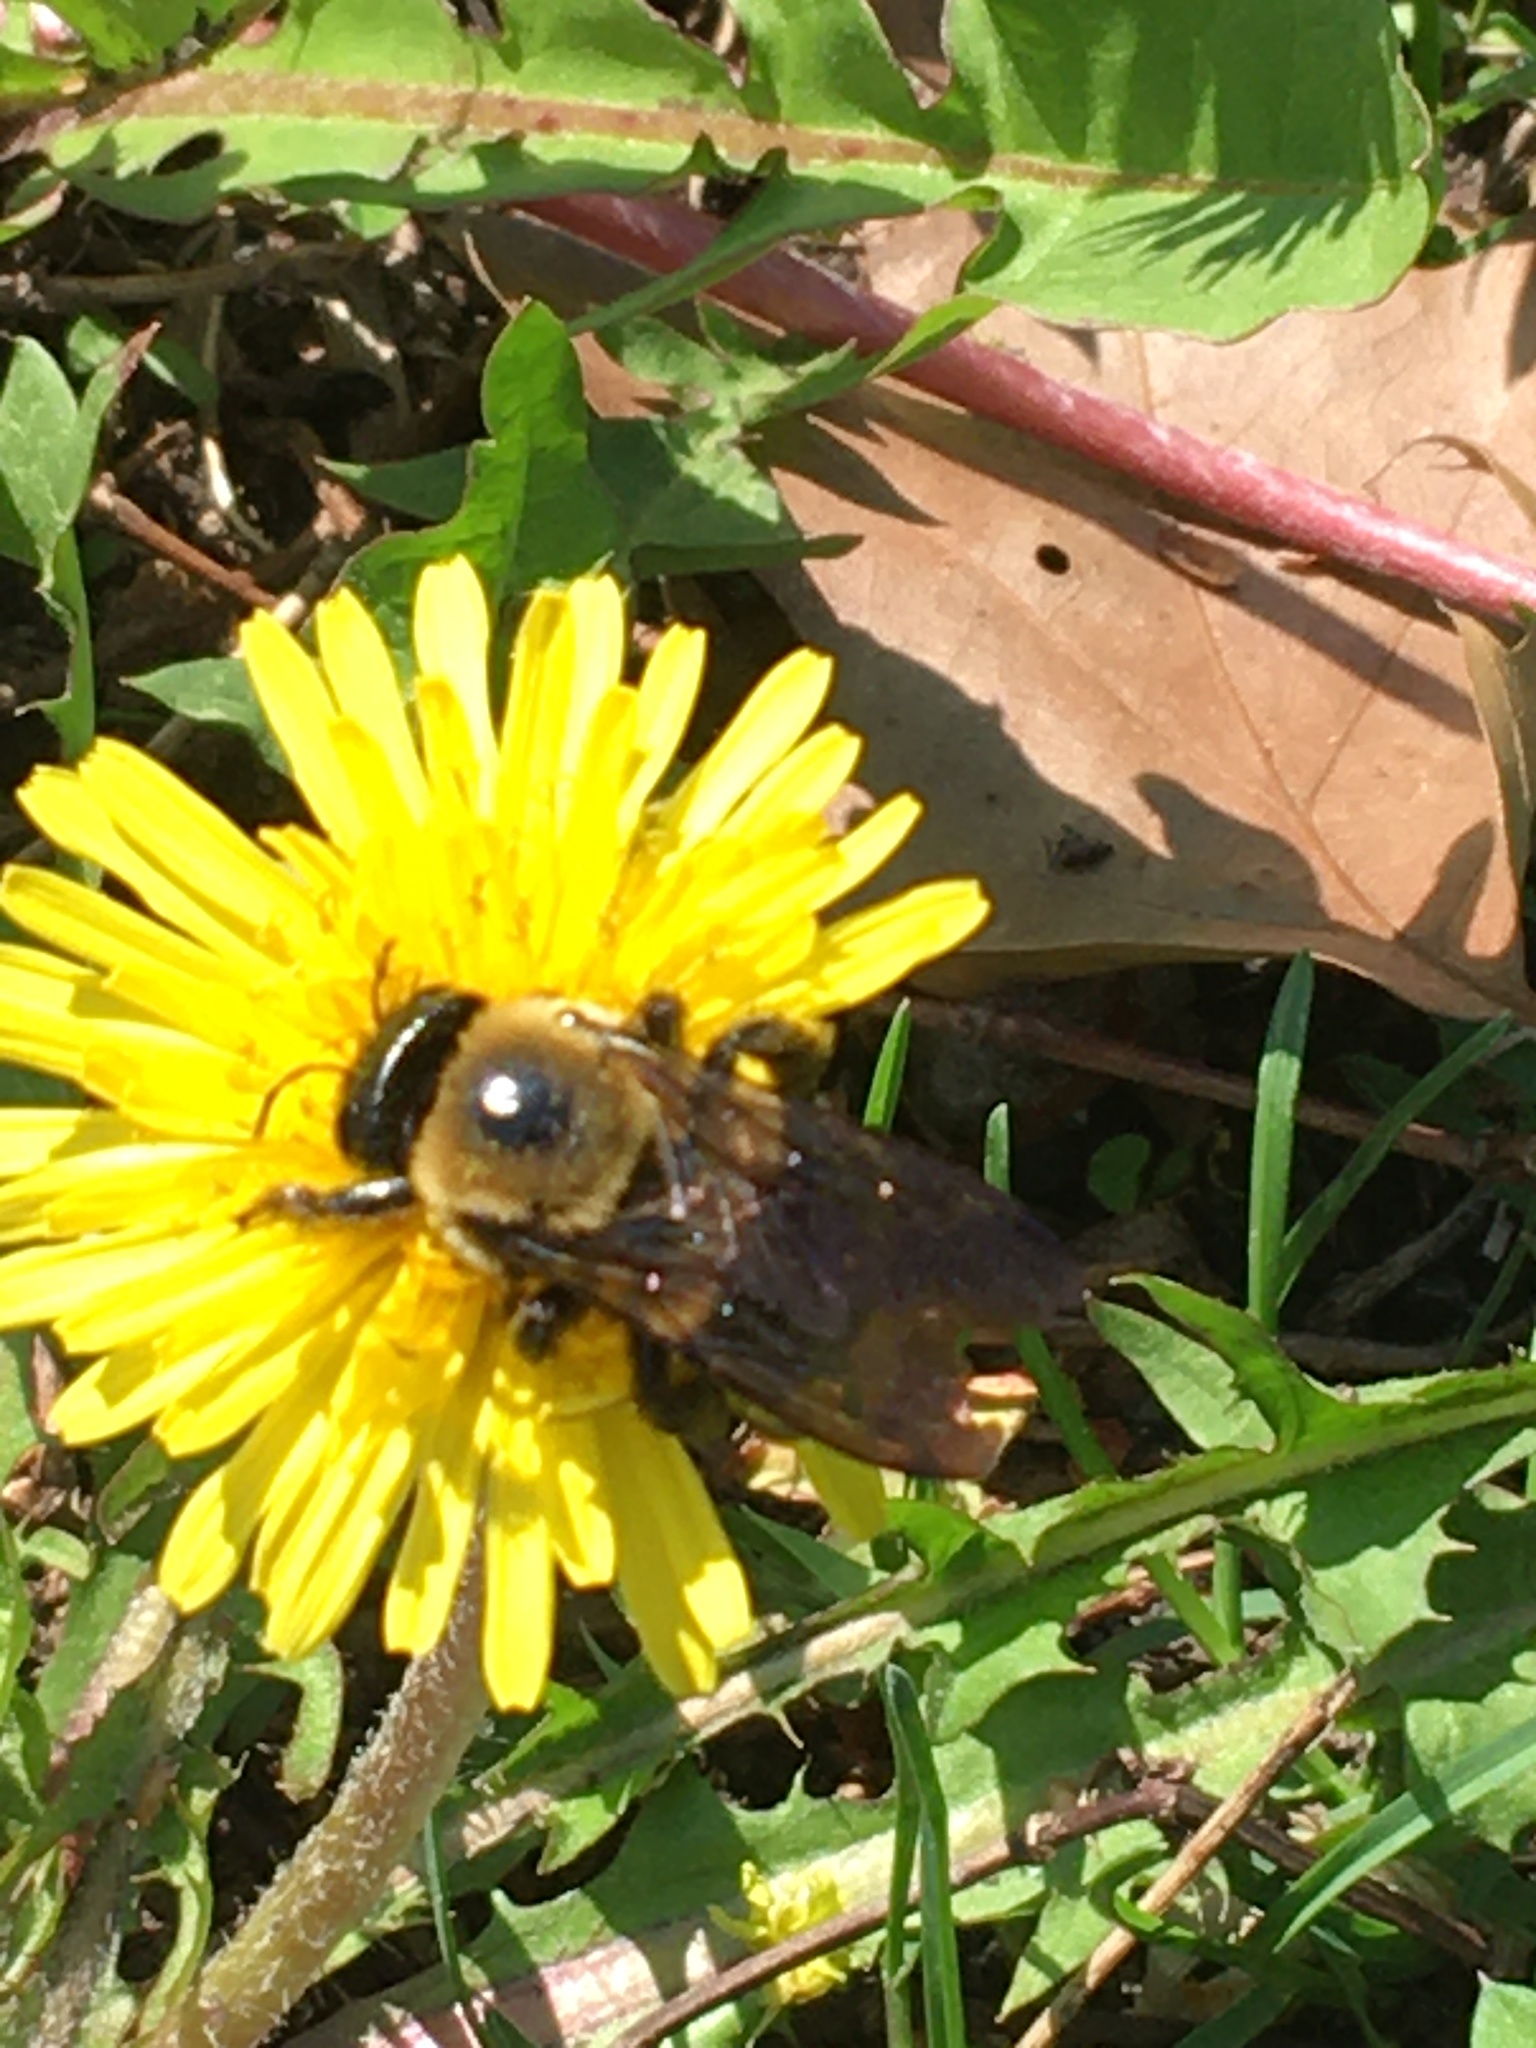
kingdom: Animalia
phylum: Arthropoda
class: Insecta
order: Hymenoptera
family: Apidae
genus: Xylocopa
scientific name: Xylocopa virginica
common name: Carpenter bee
